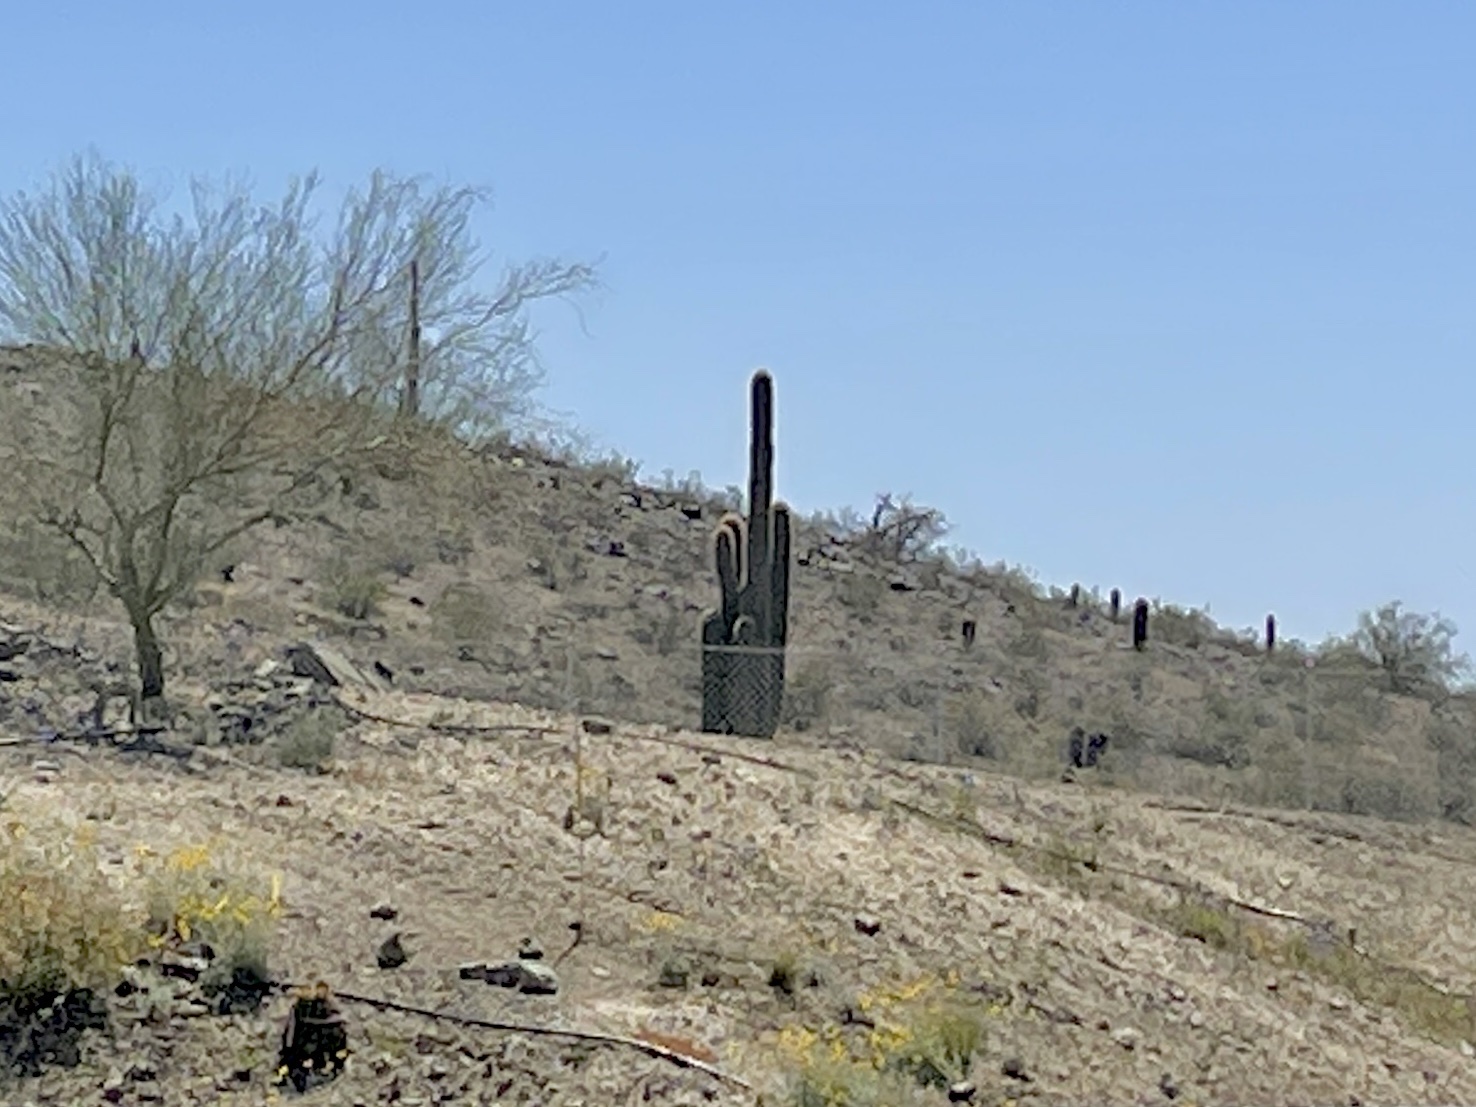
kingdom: Plantae
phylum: Tracheophyta
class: Magnoliopsida
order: Caryophyllales
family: Cactaceae
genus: Carnegiea
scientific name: Carnegiea gigantea
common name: Saguaro
